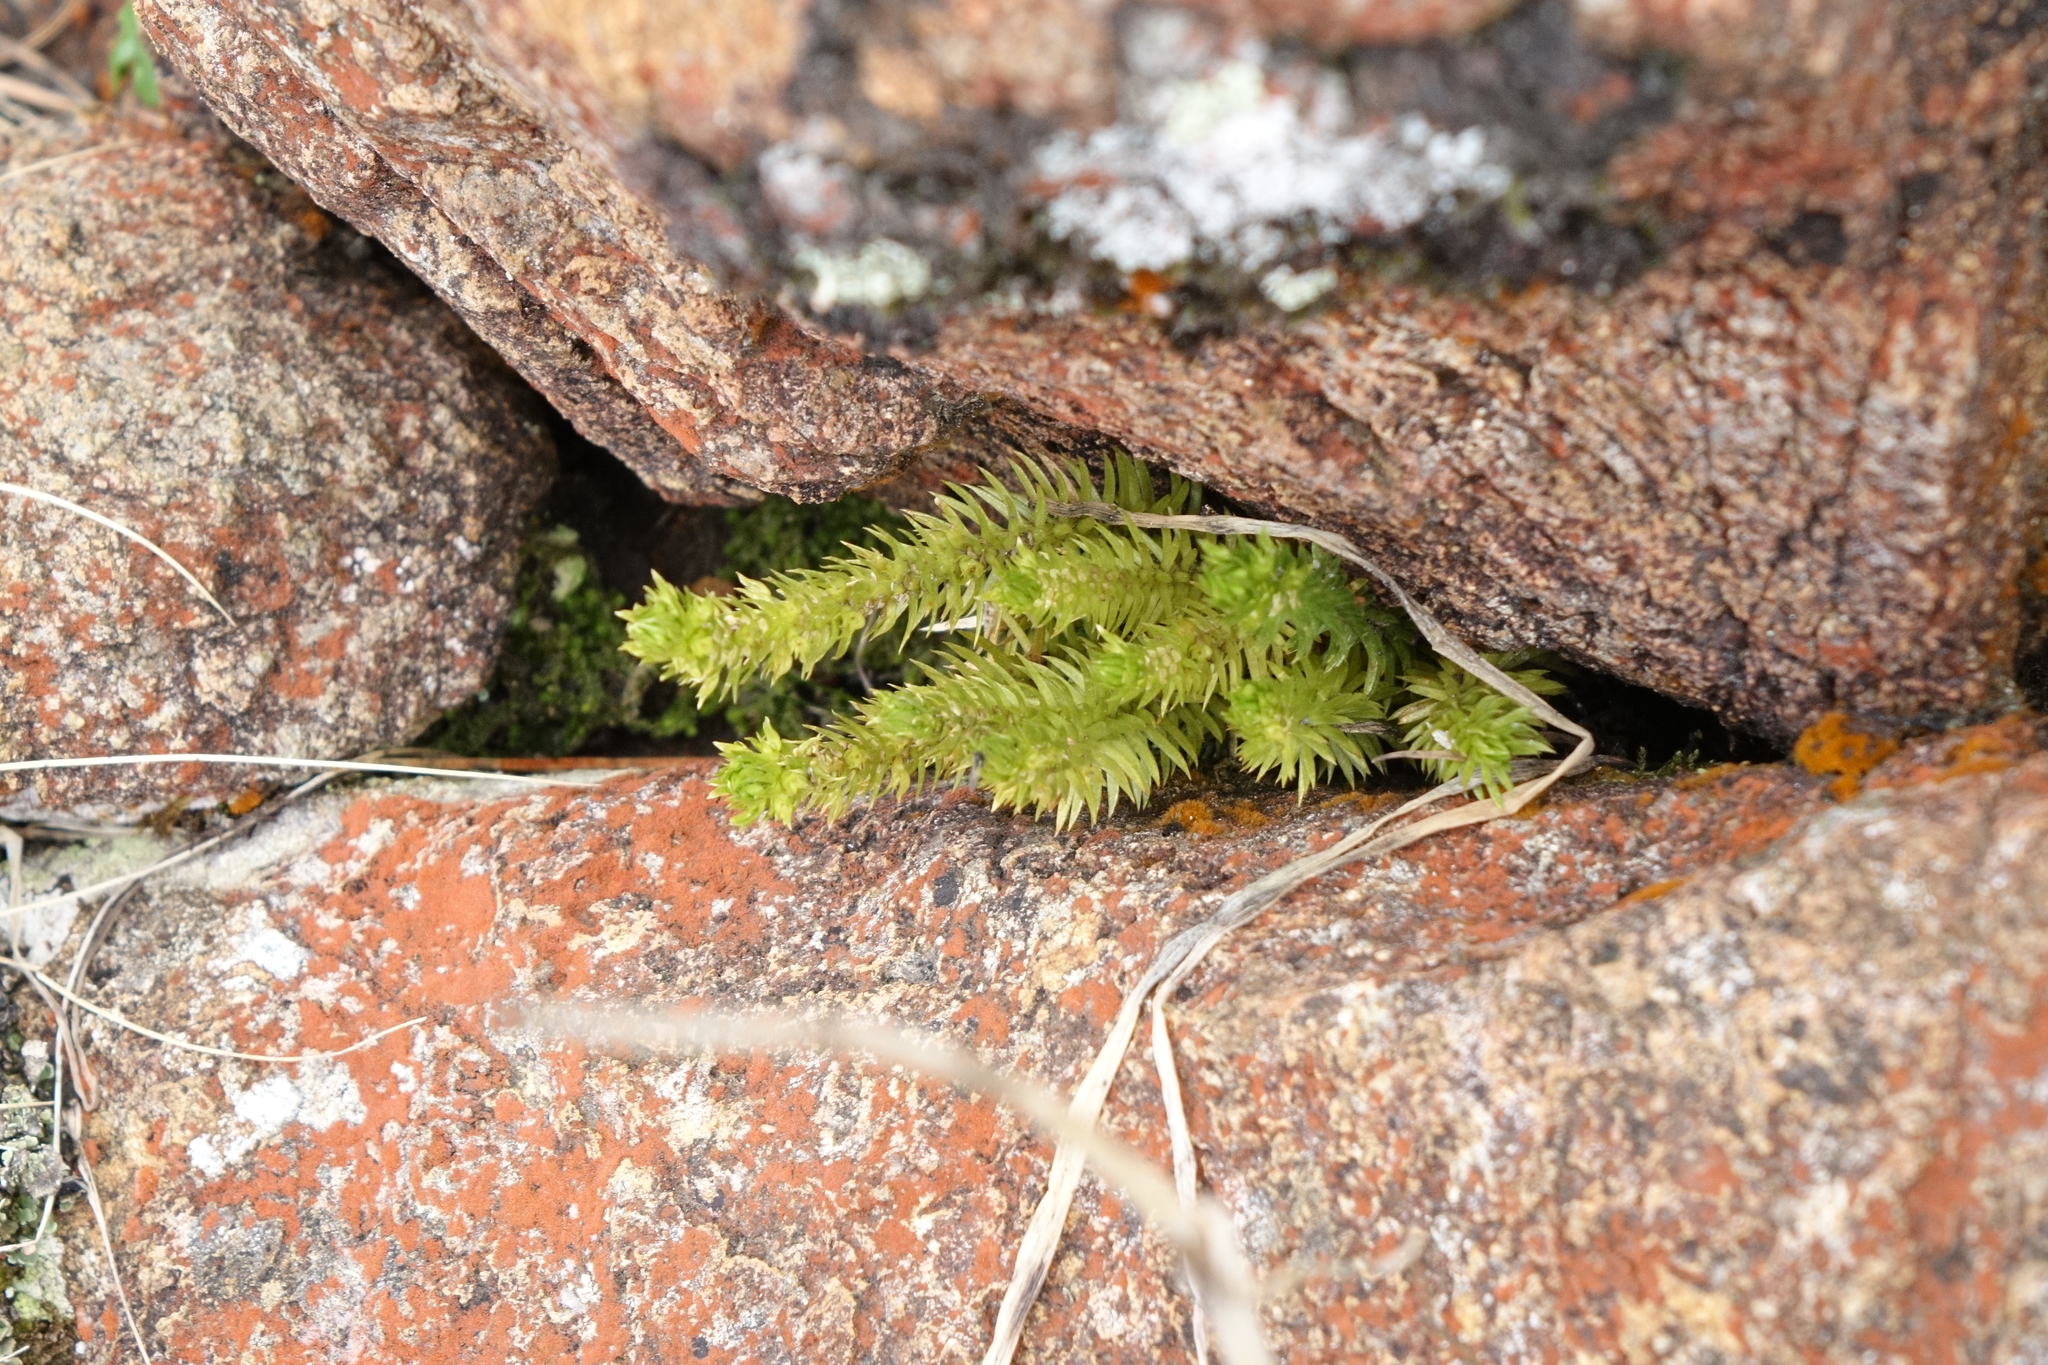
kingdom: Plantae
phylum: Tracheophyta
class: Lycopodiopsida
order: Lycopodiales
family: Lycopodiaceae
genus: Huperzia
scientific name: Huperzia selago
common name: Northern firmoss
